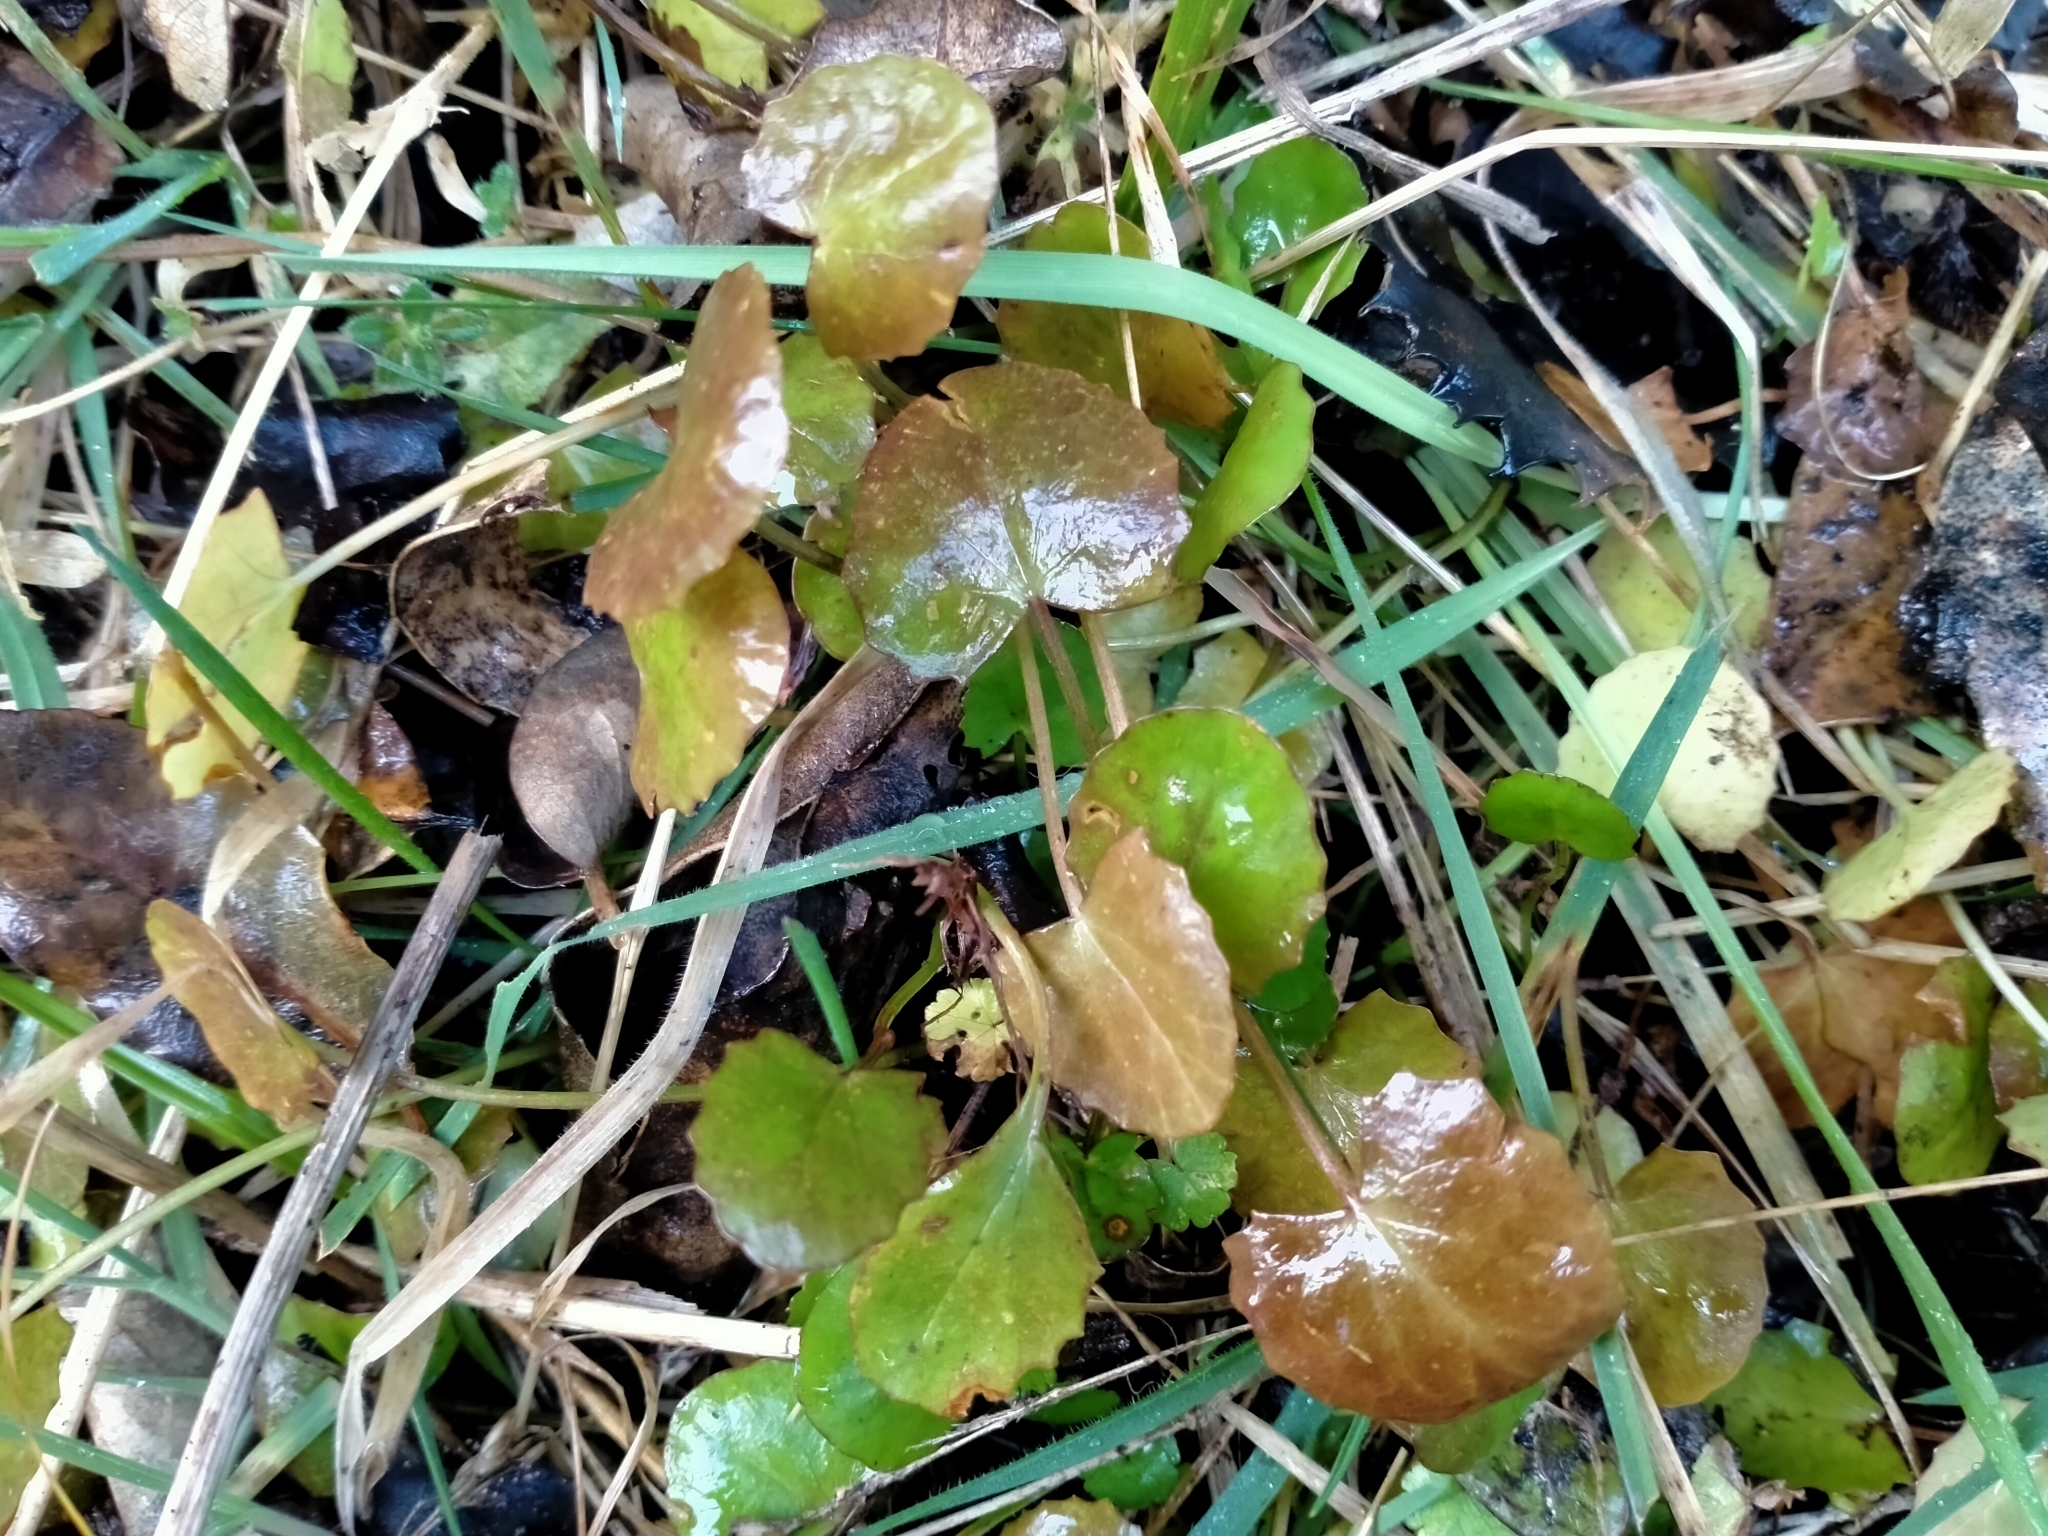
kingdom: Plantae
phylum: Tracheophyta
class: Magnoliopsida
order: Apiales
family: Apiaceae
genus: Centella
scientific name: Centella uniflora
